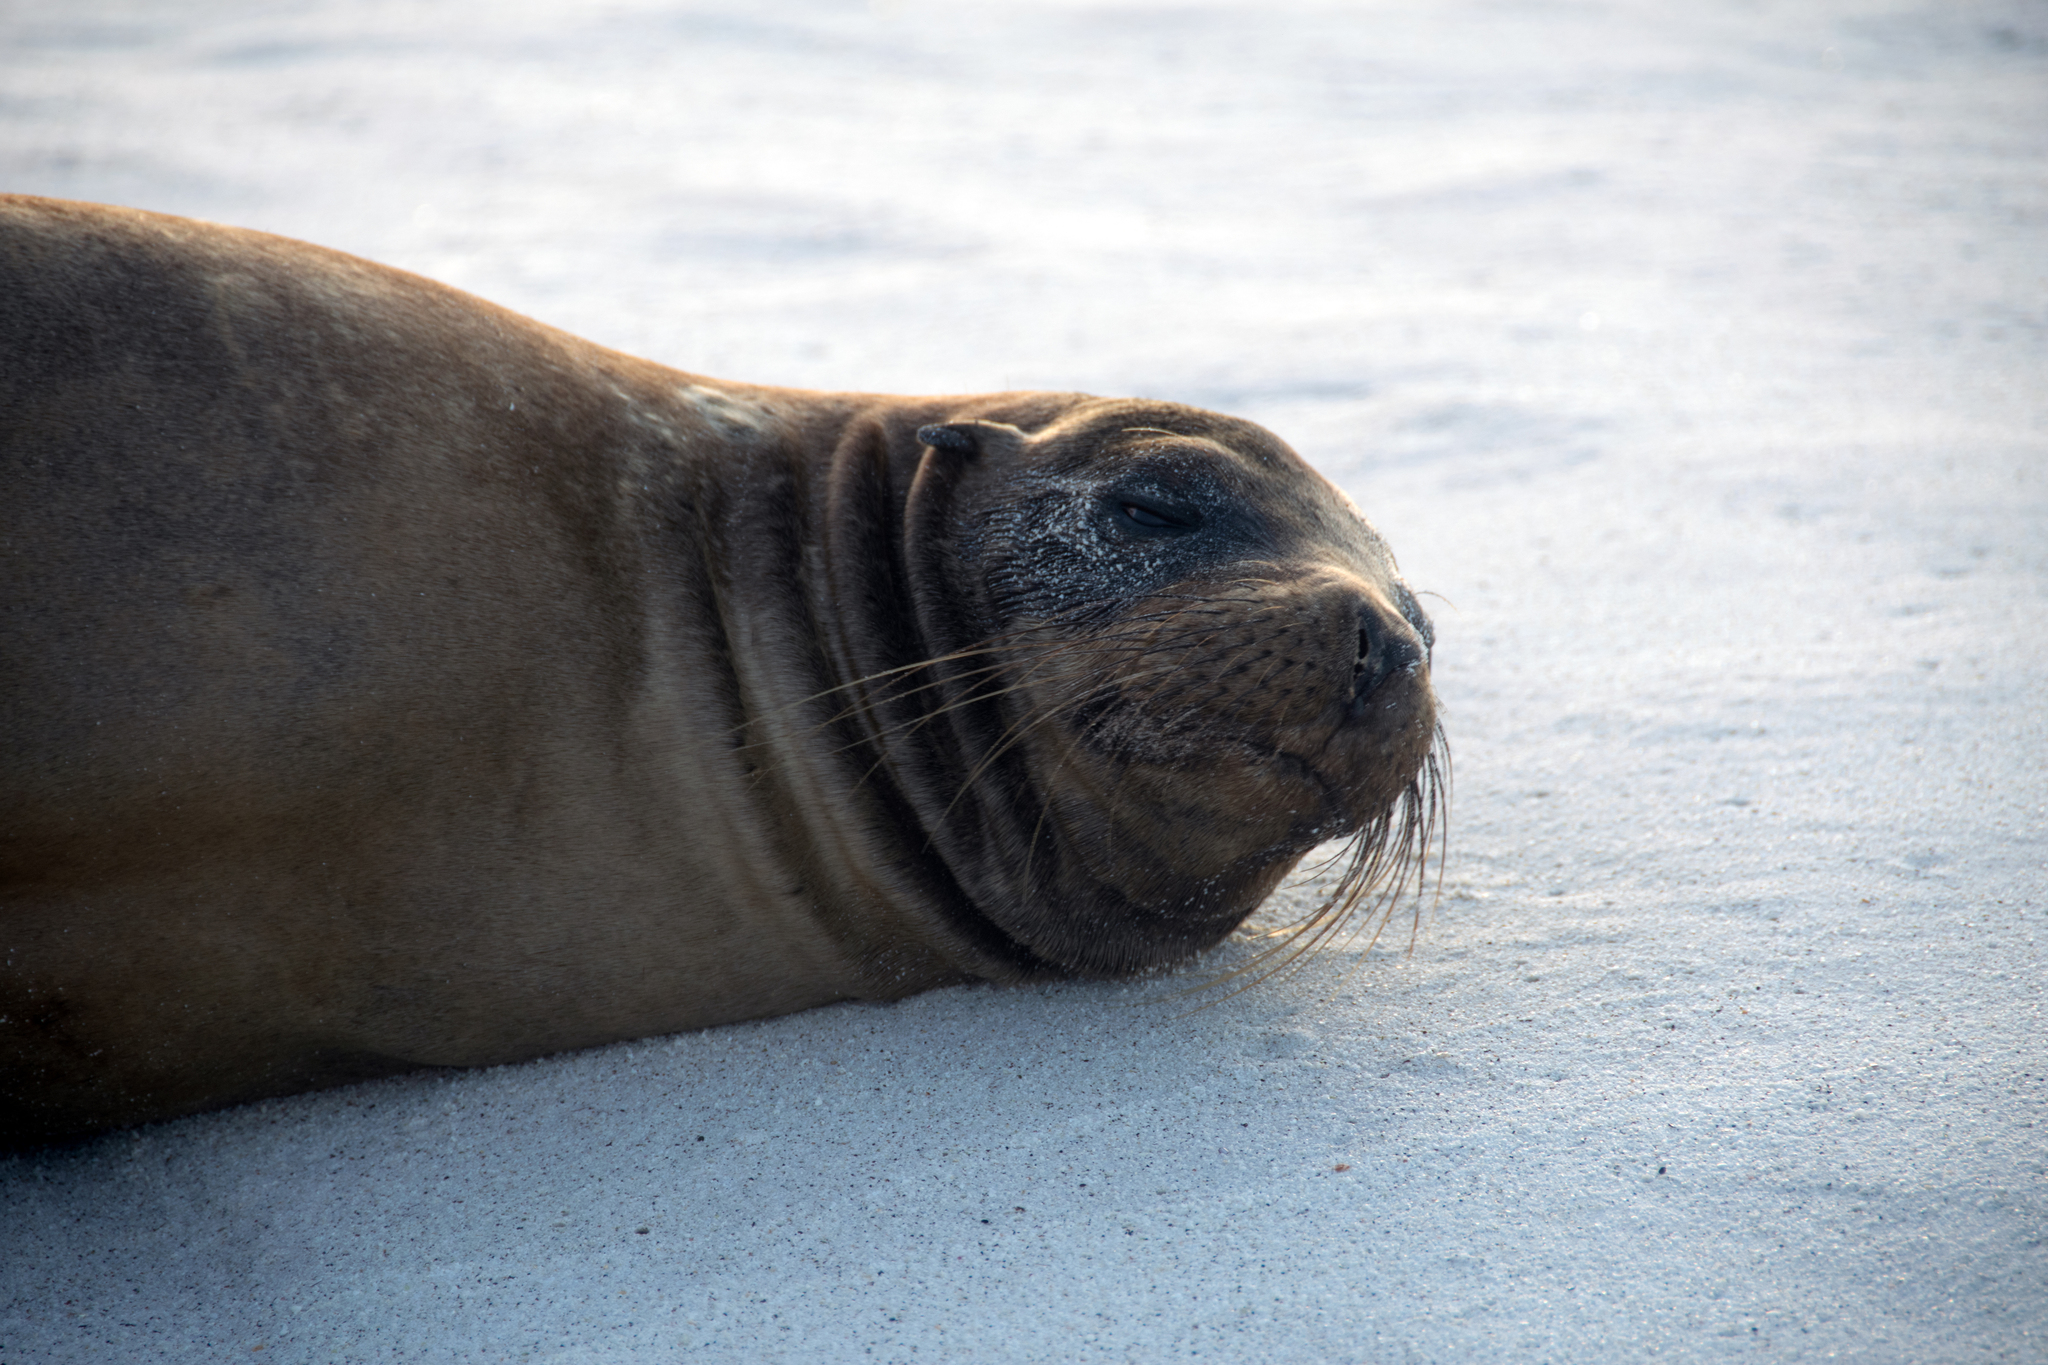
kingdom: Animalia
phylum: Chordata
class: Mammalia
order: Carnivora
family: Otariidae
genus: Zalophus
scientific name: Zalophus wollebaeki
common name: Galapagos sea lion
